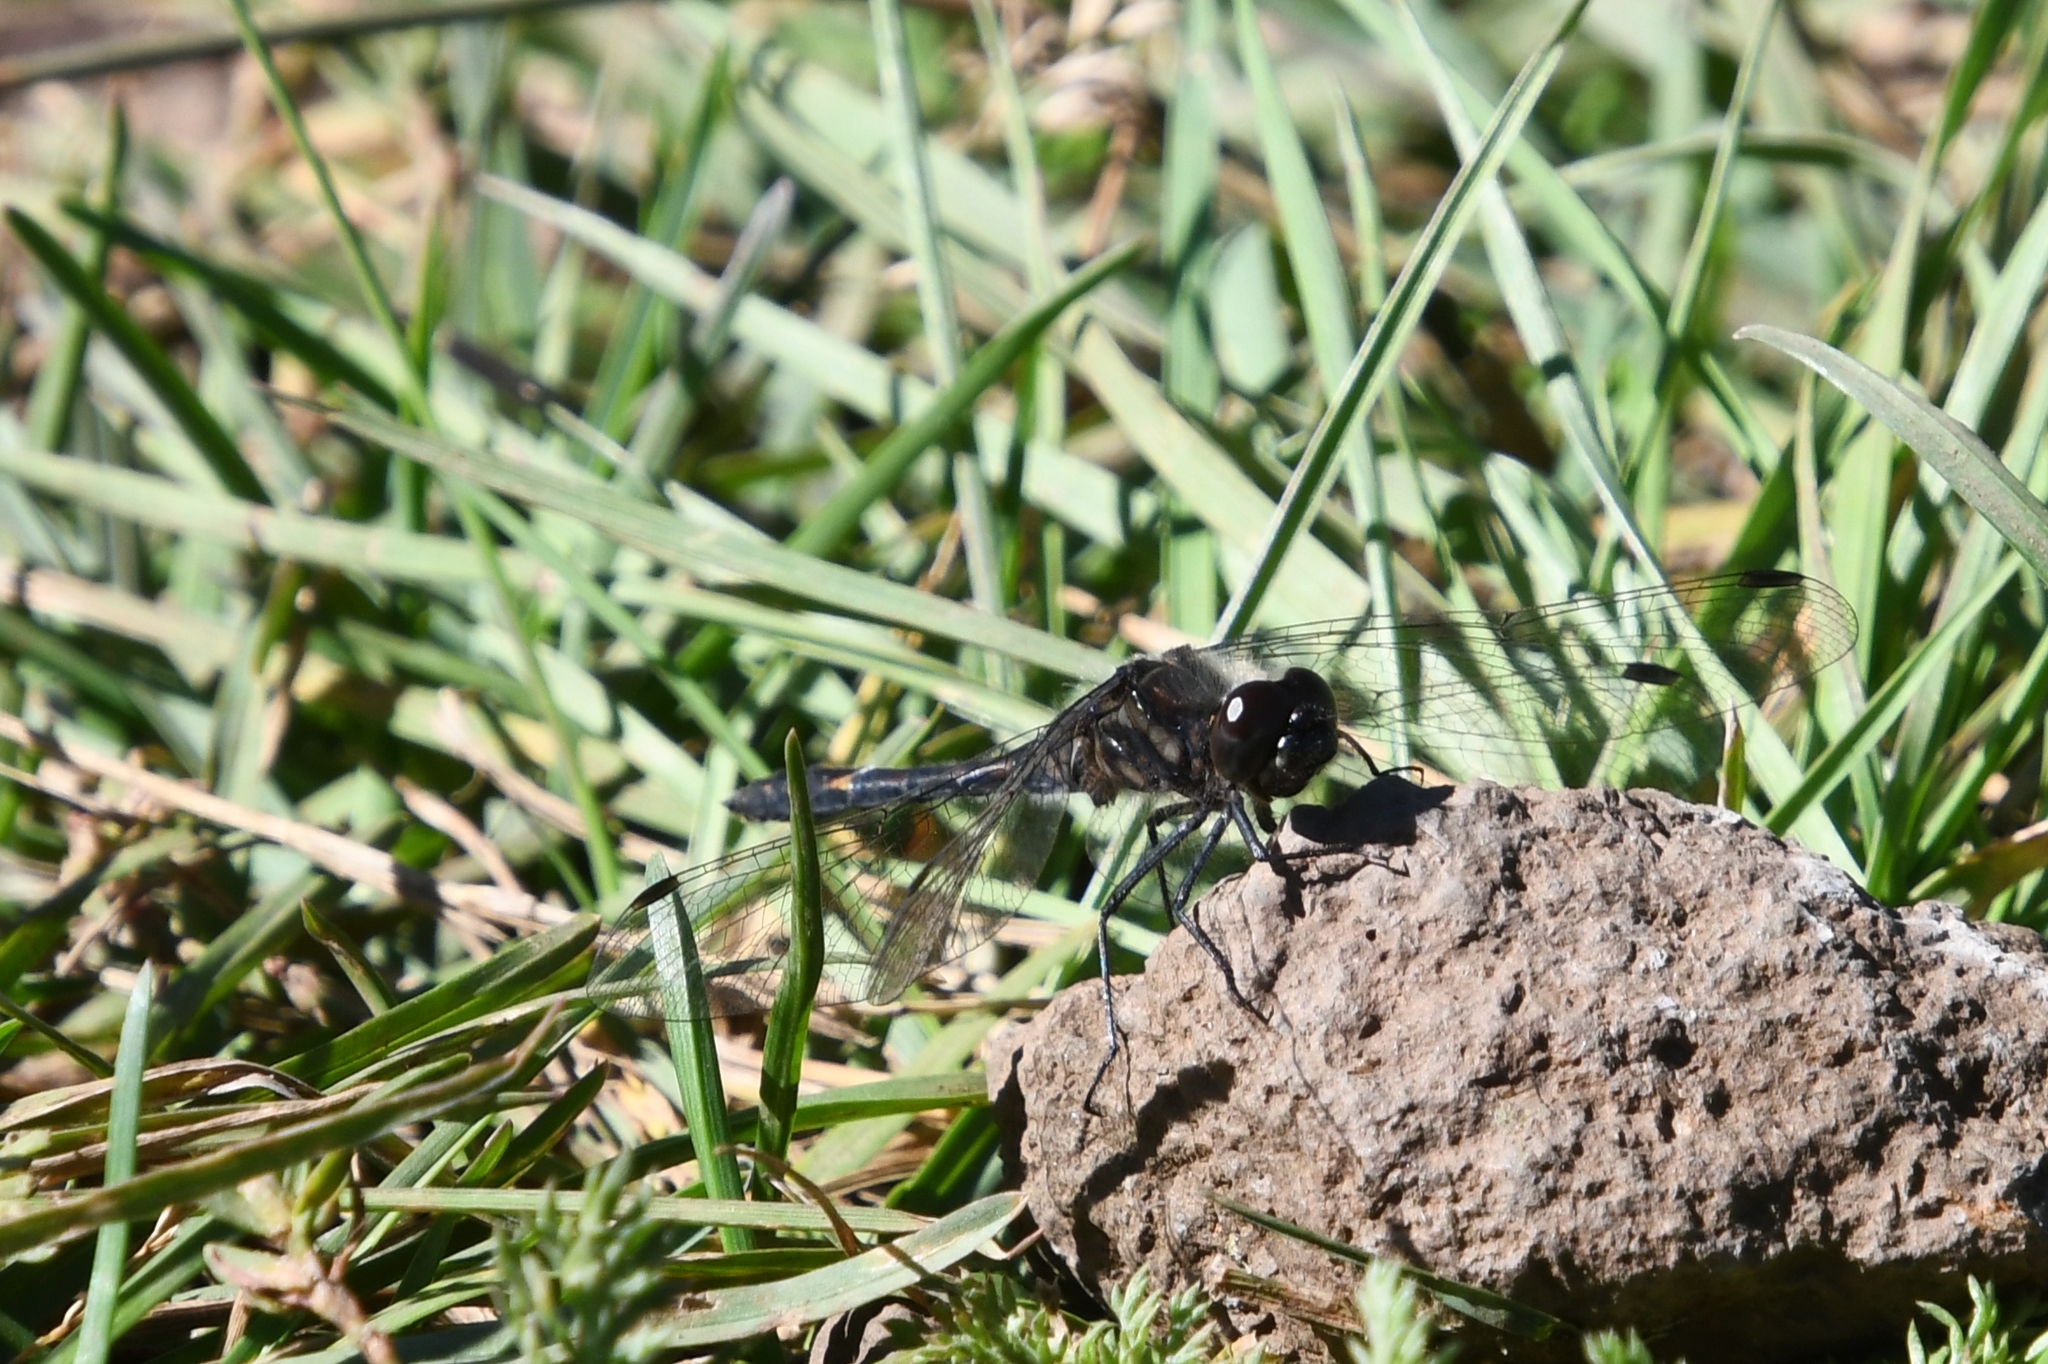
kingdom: Animalia
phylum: Arthropoda
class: Insecta
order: Odonata
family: Libellulidae
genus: Sympetrum
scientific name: Sympetrum danae
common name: Black darter
